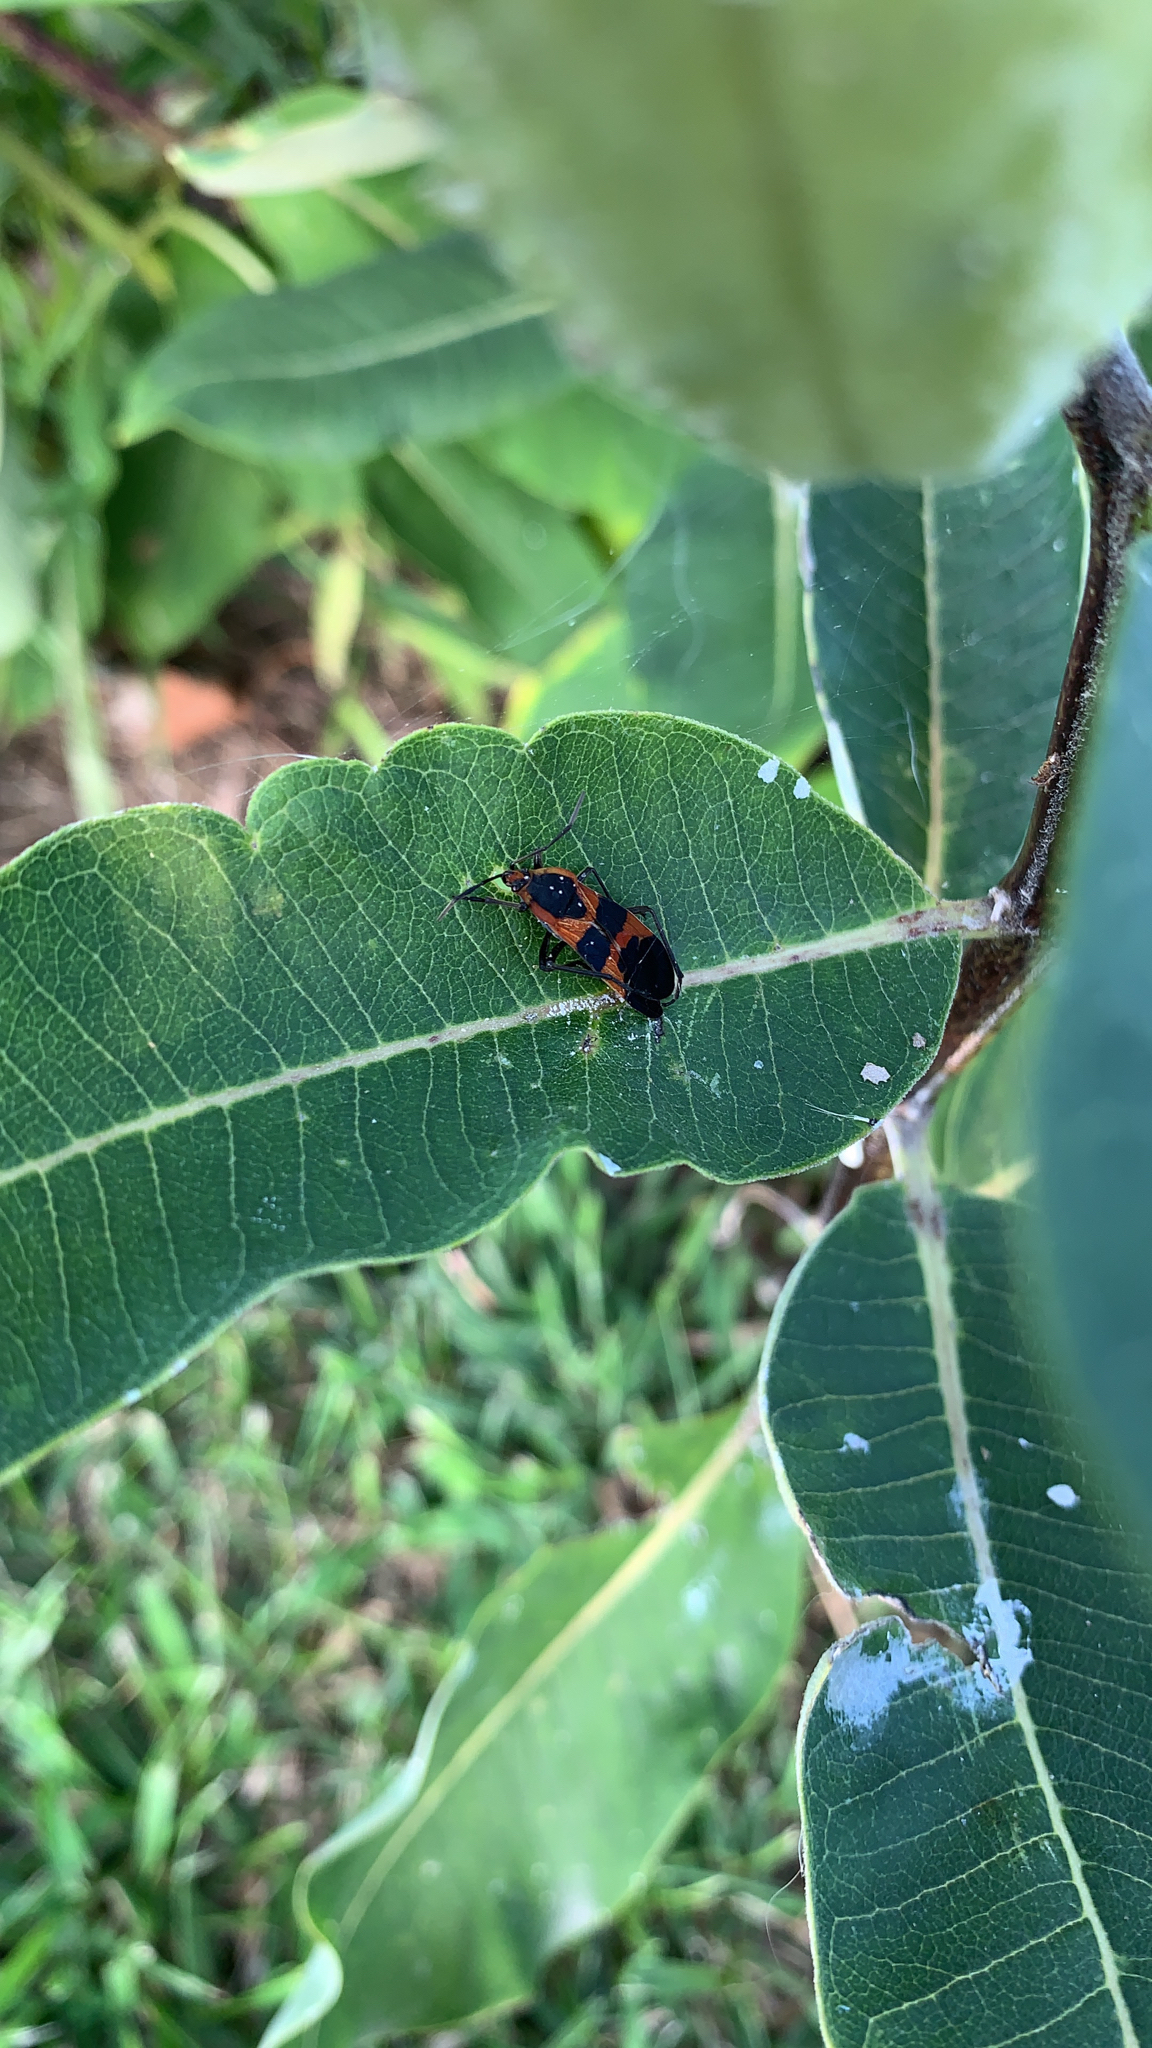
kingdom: Animalia
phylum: Arthropoda
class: Insecta
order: Hemiptera
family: Lygaeidae
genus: Oncopeltus
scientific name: Oncopeltus fasciatus
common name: Large milkweed bug
